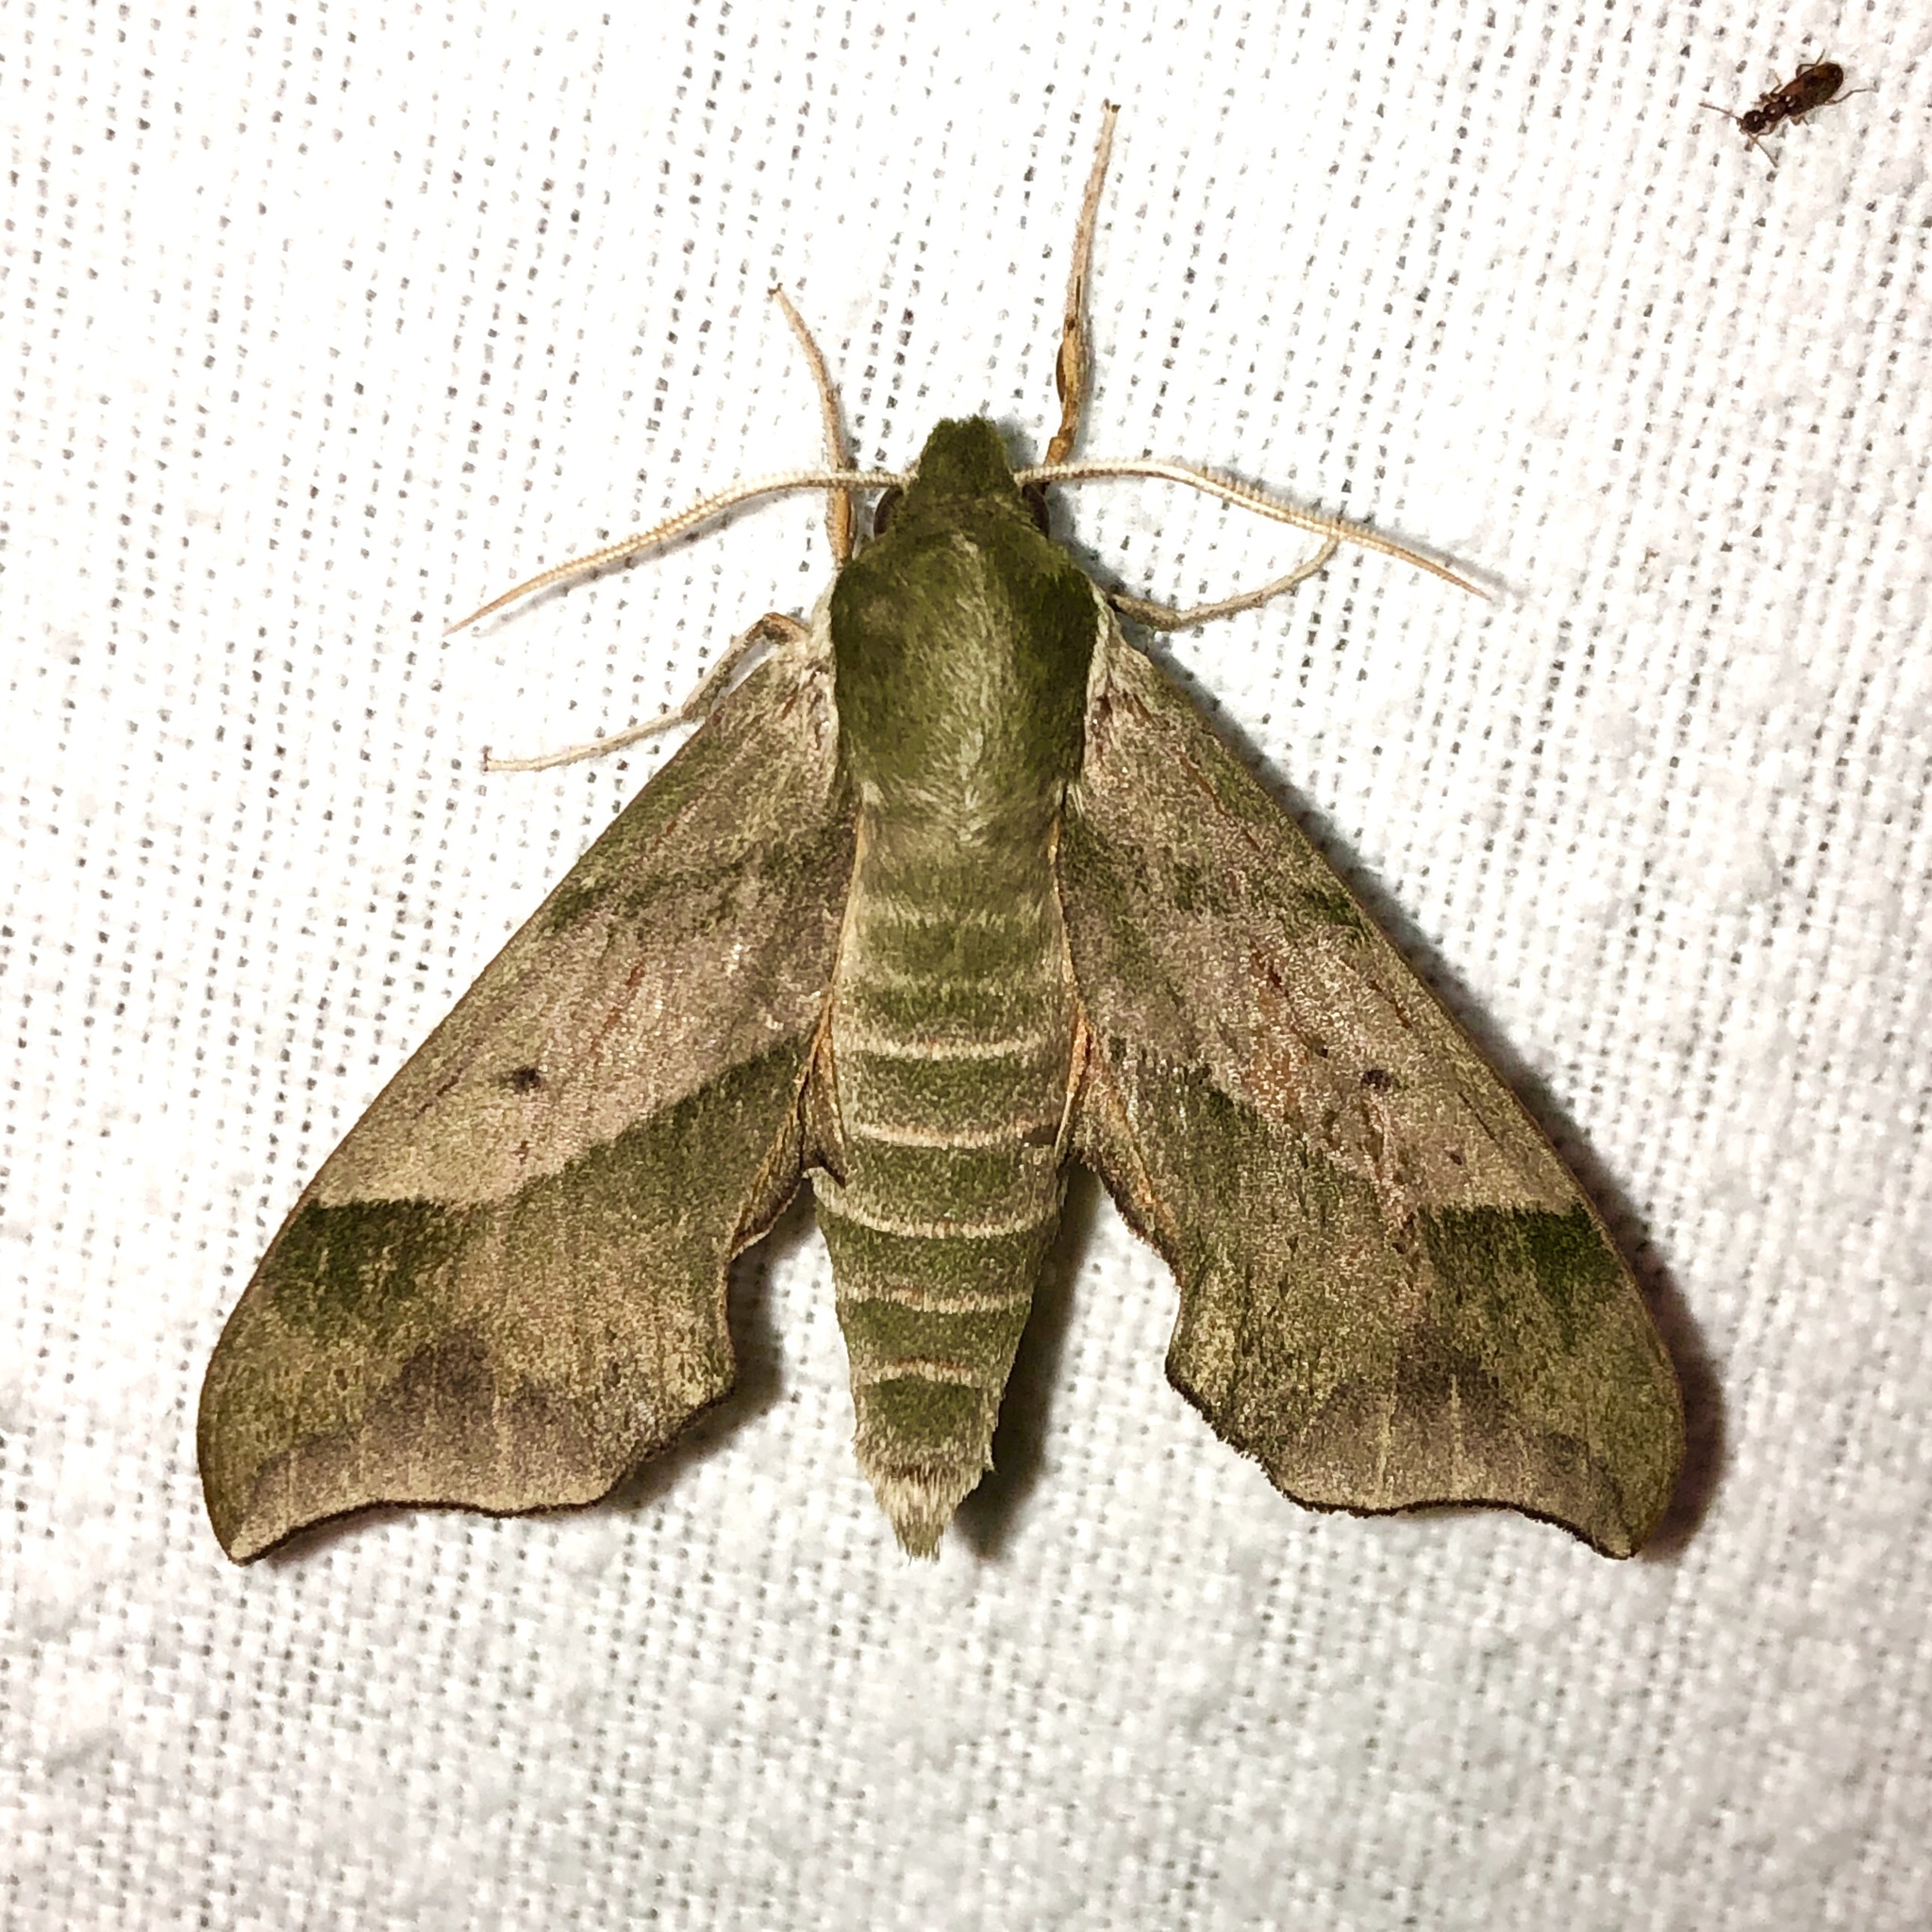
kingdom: Animalia
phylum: Arthropoda
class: Insecta
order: Lepidoptera
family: Sphingidae
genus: Darapsa
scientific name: Darapsa myron
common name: Hog sphinx
